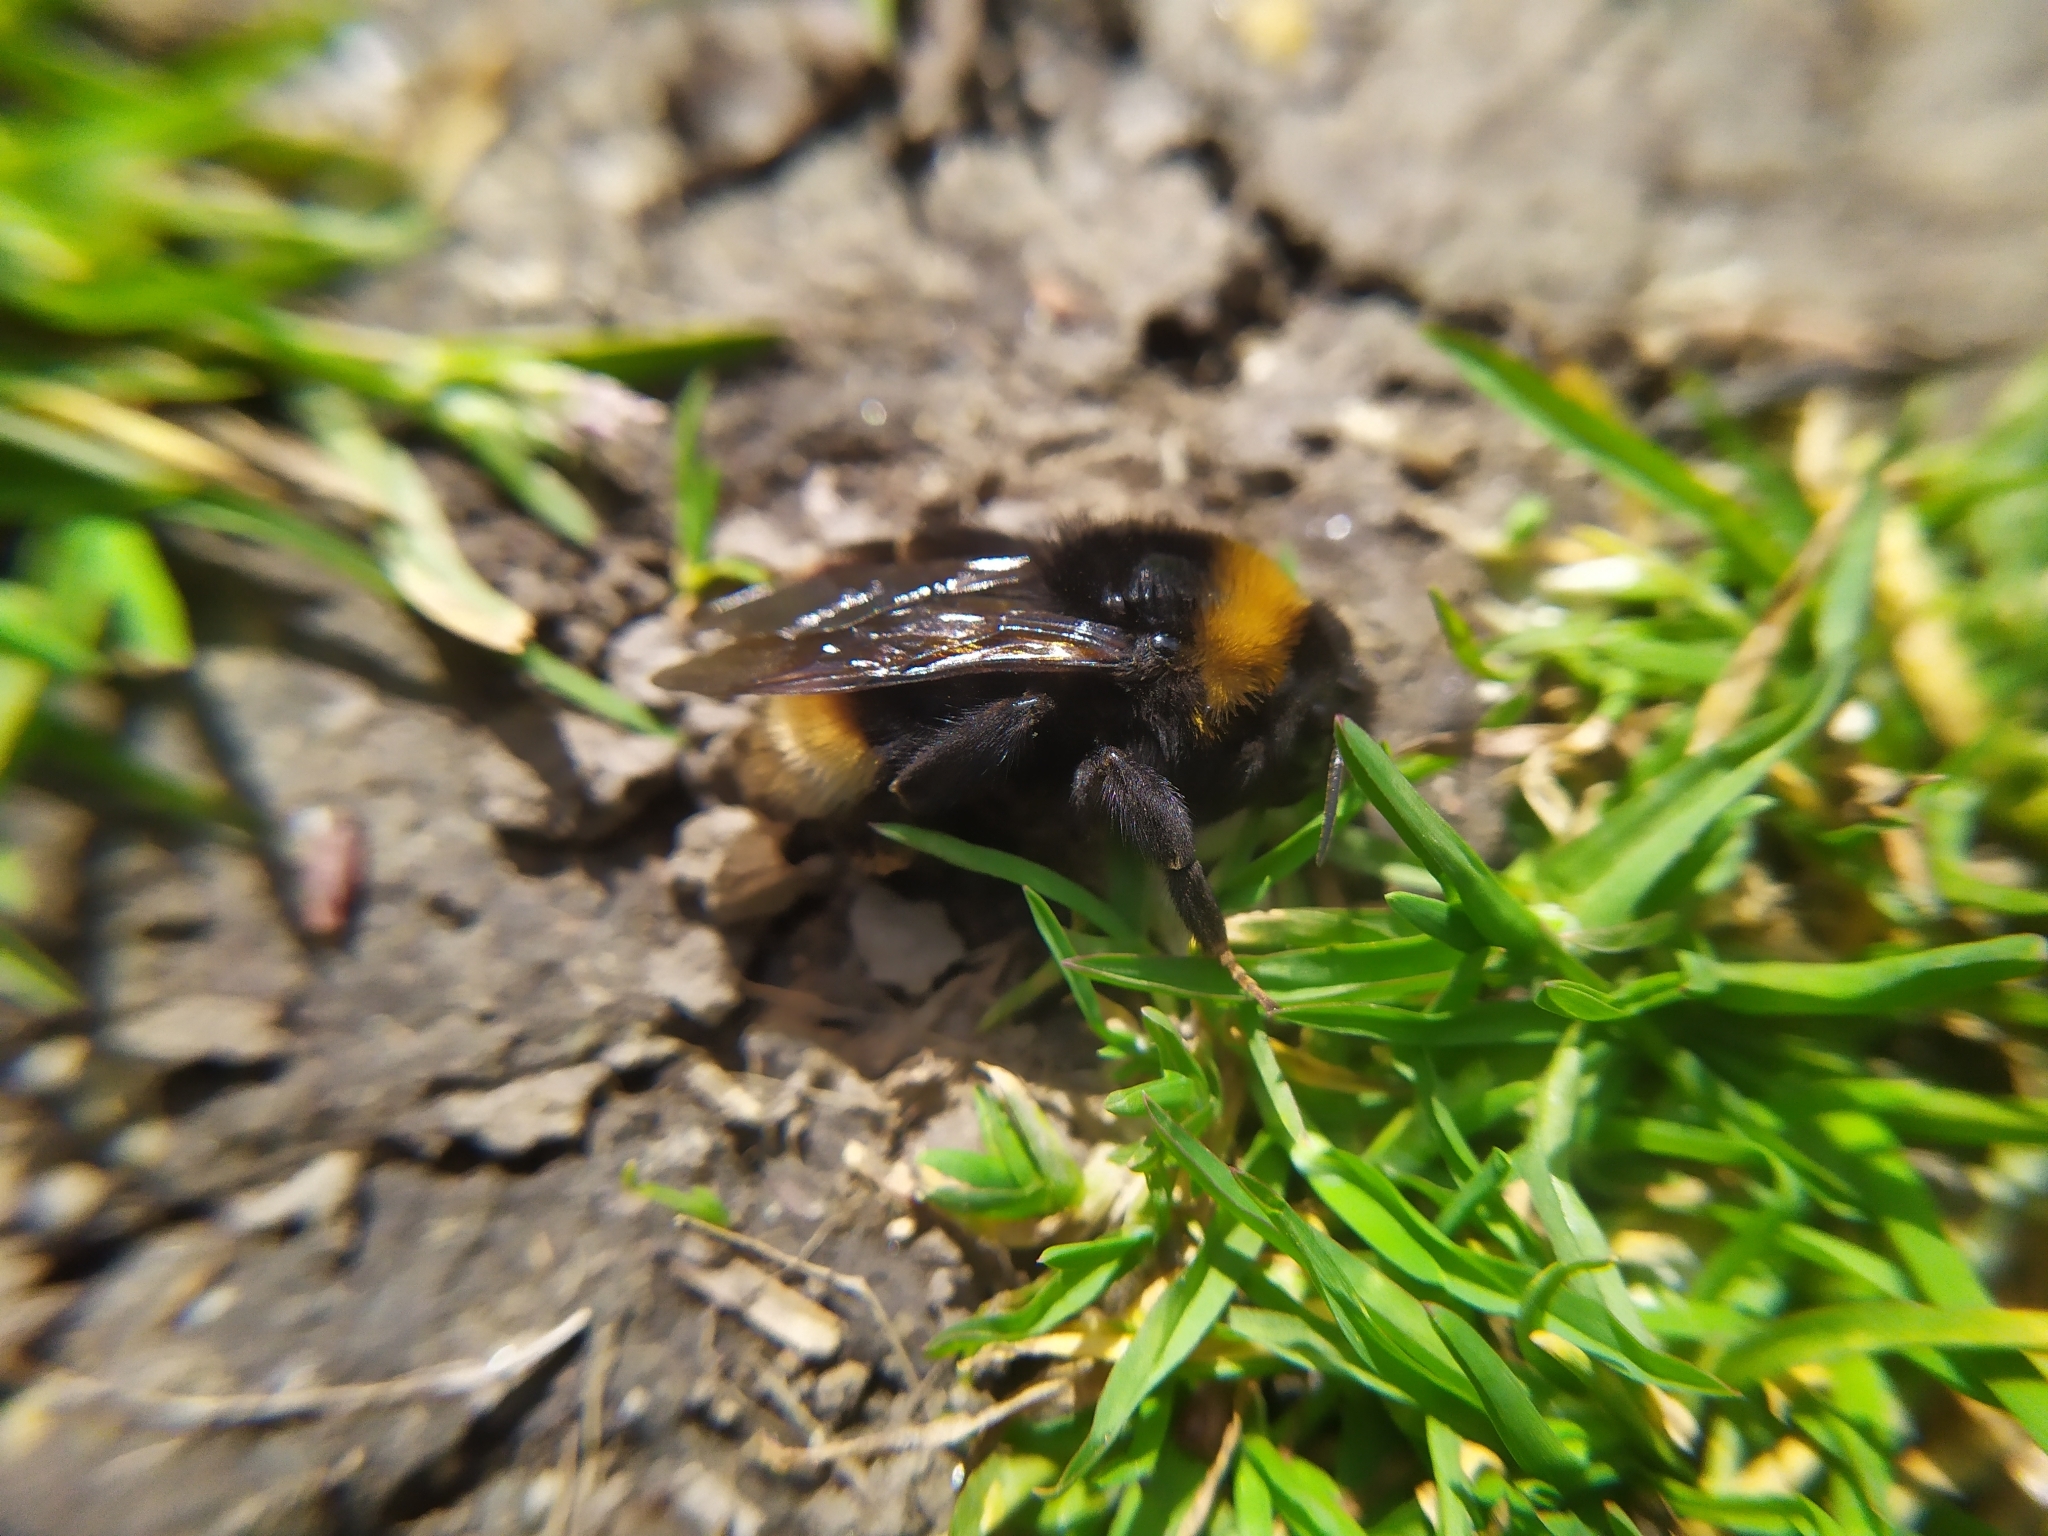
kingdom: Animalia
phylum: Arthropoda
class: Insecta
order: Hymenoptera
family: Apidae
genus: Bombus
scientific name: Bombus vestalis
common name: Vestal cuckoo bee
